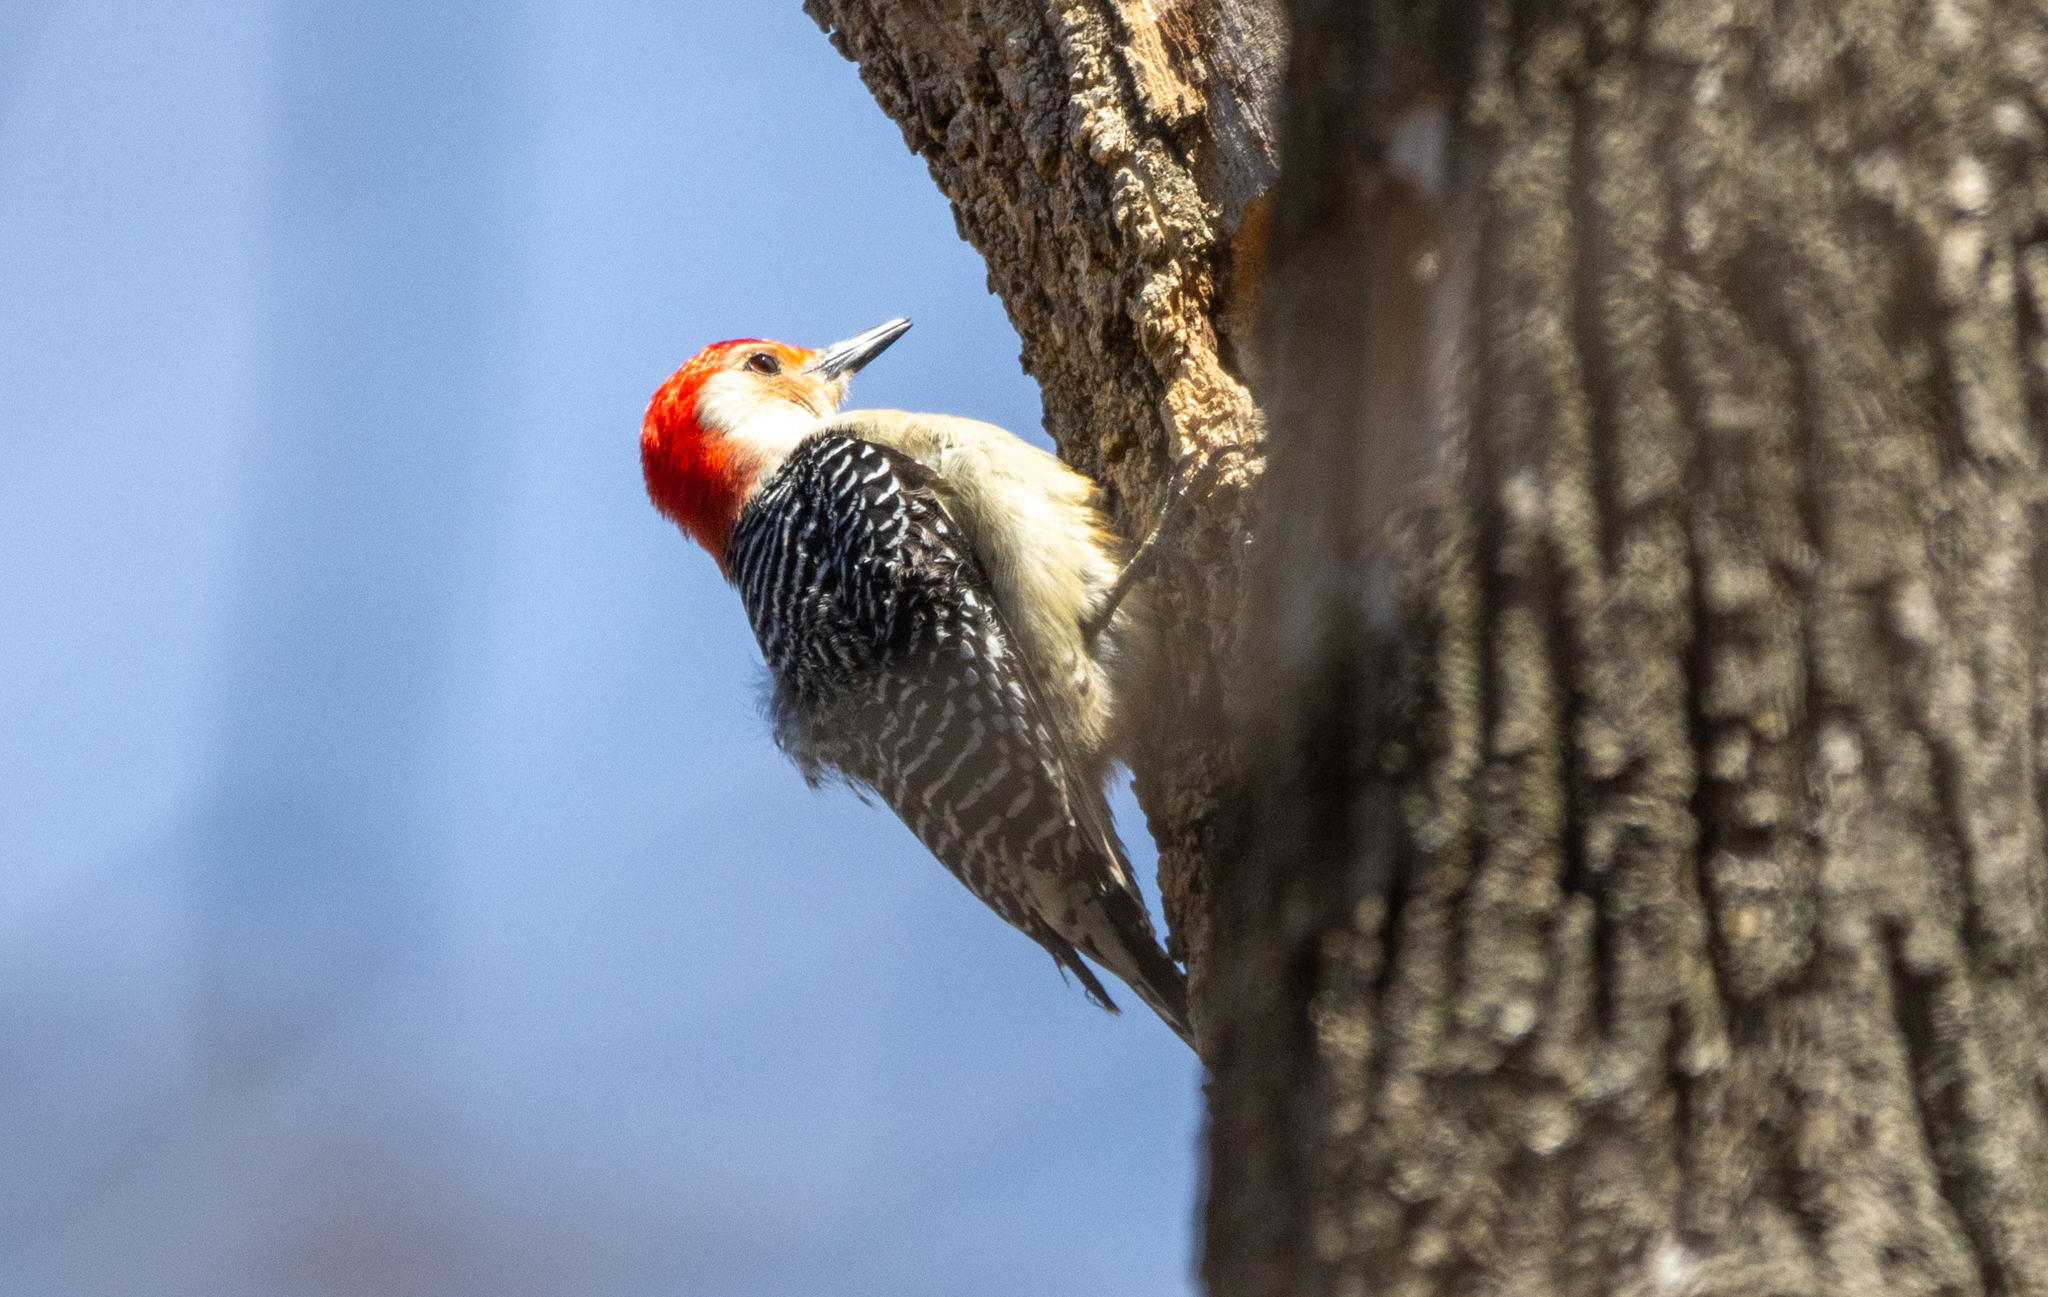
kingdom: Animalia
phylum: Chordata
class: Aves
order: Piciformes
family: Picidae
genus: Melanerpes
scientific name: Melanerpes carolinus
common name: Red-bellied woodpecker
